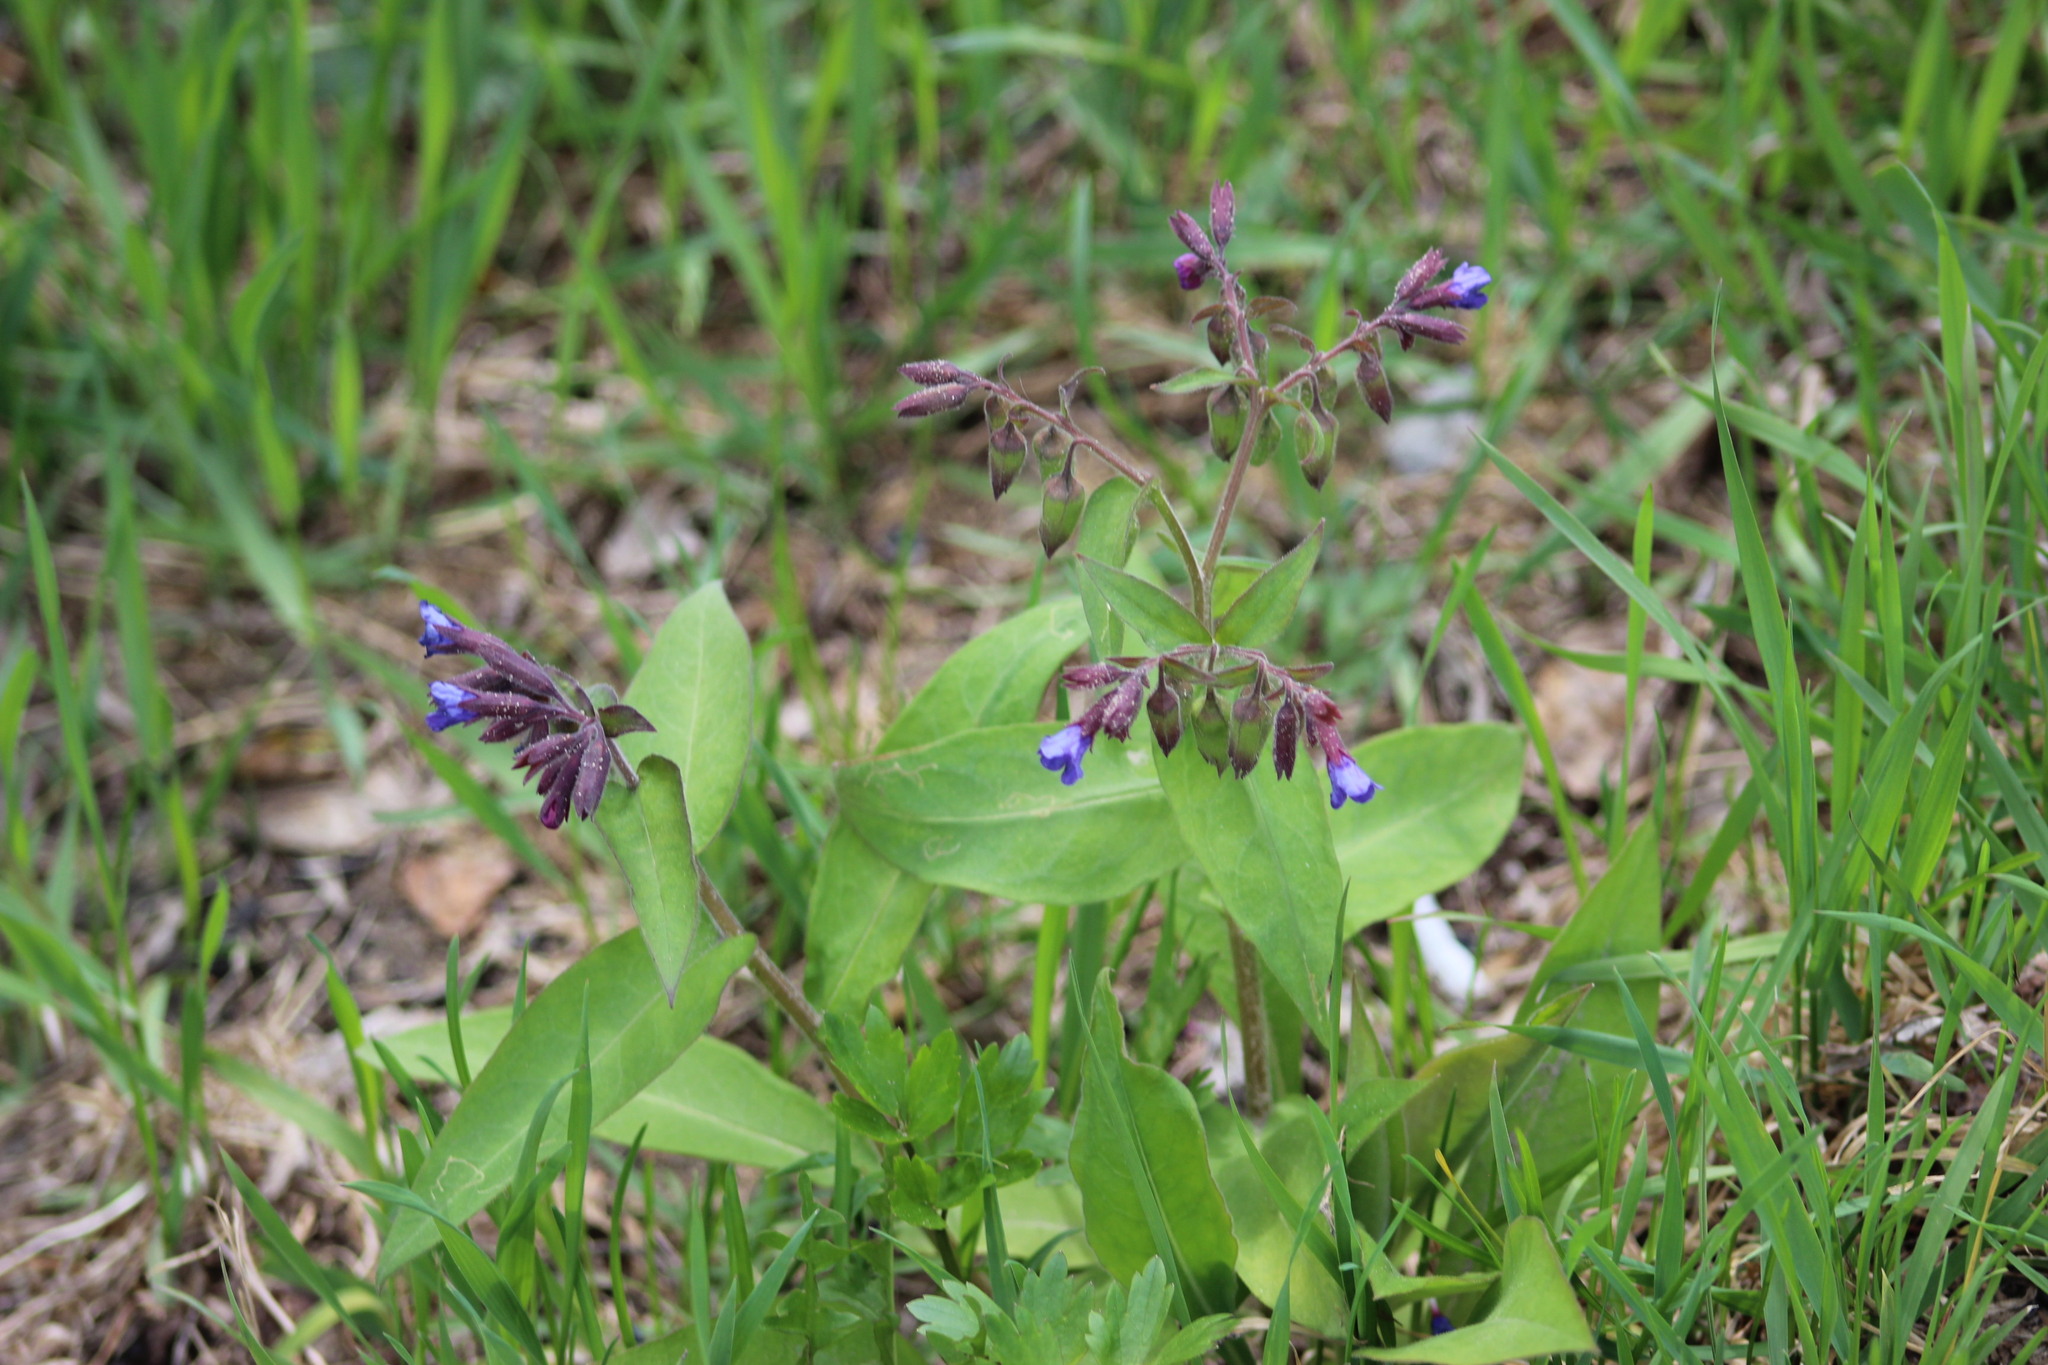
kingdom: Plantae
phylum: Tracheophyta
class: Magnoliopsida
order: Boraginales
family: Boraginaceae
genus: Pulmonaria
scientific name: Pulmonaria mollis
